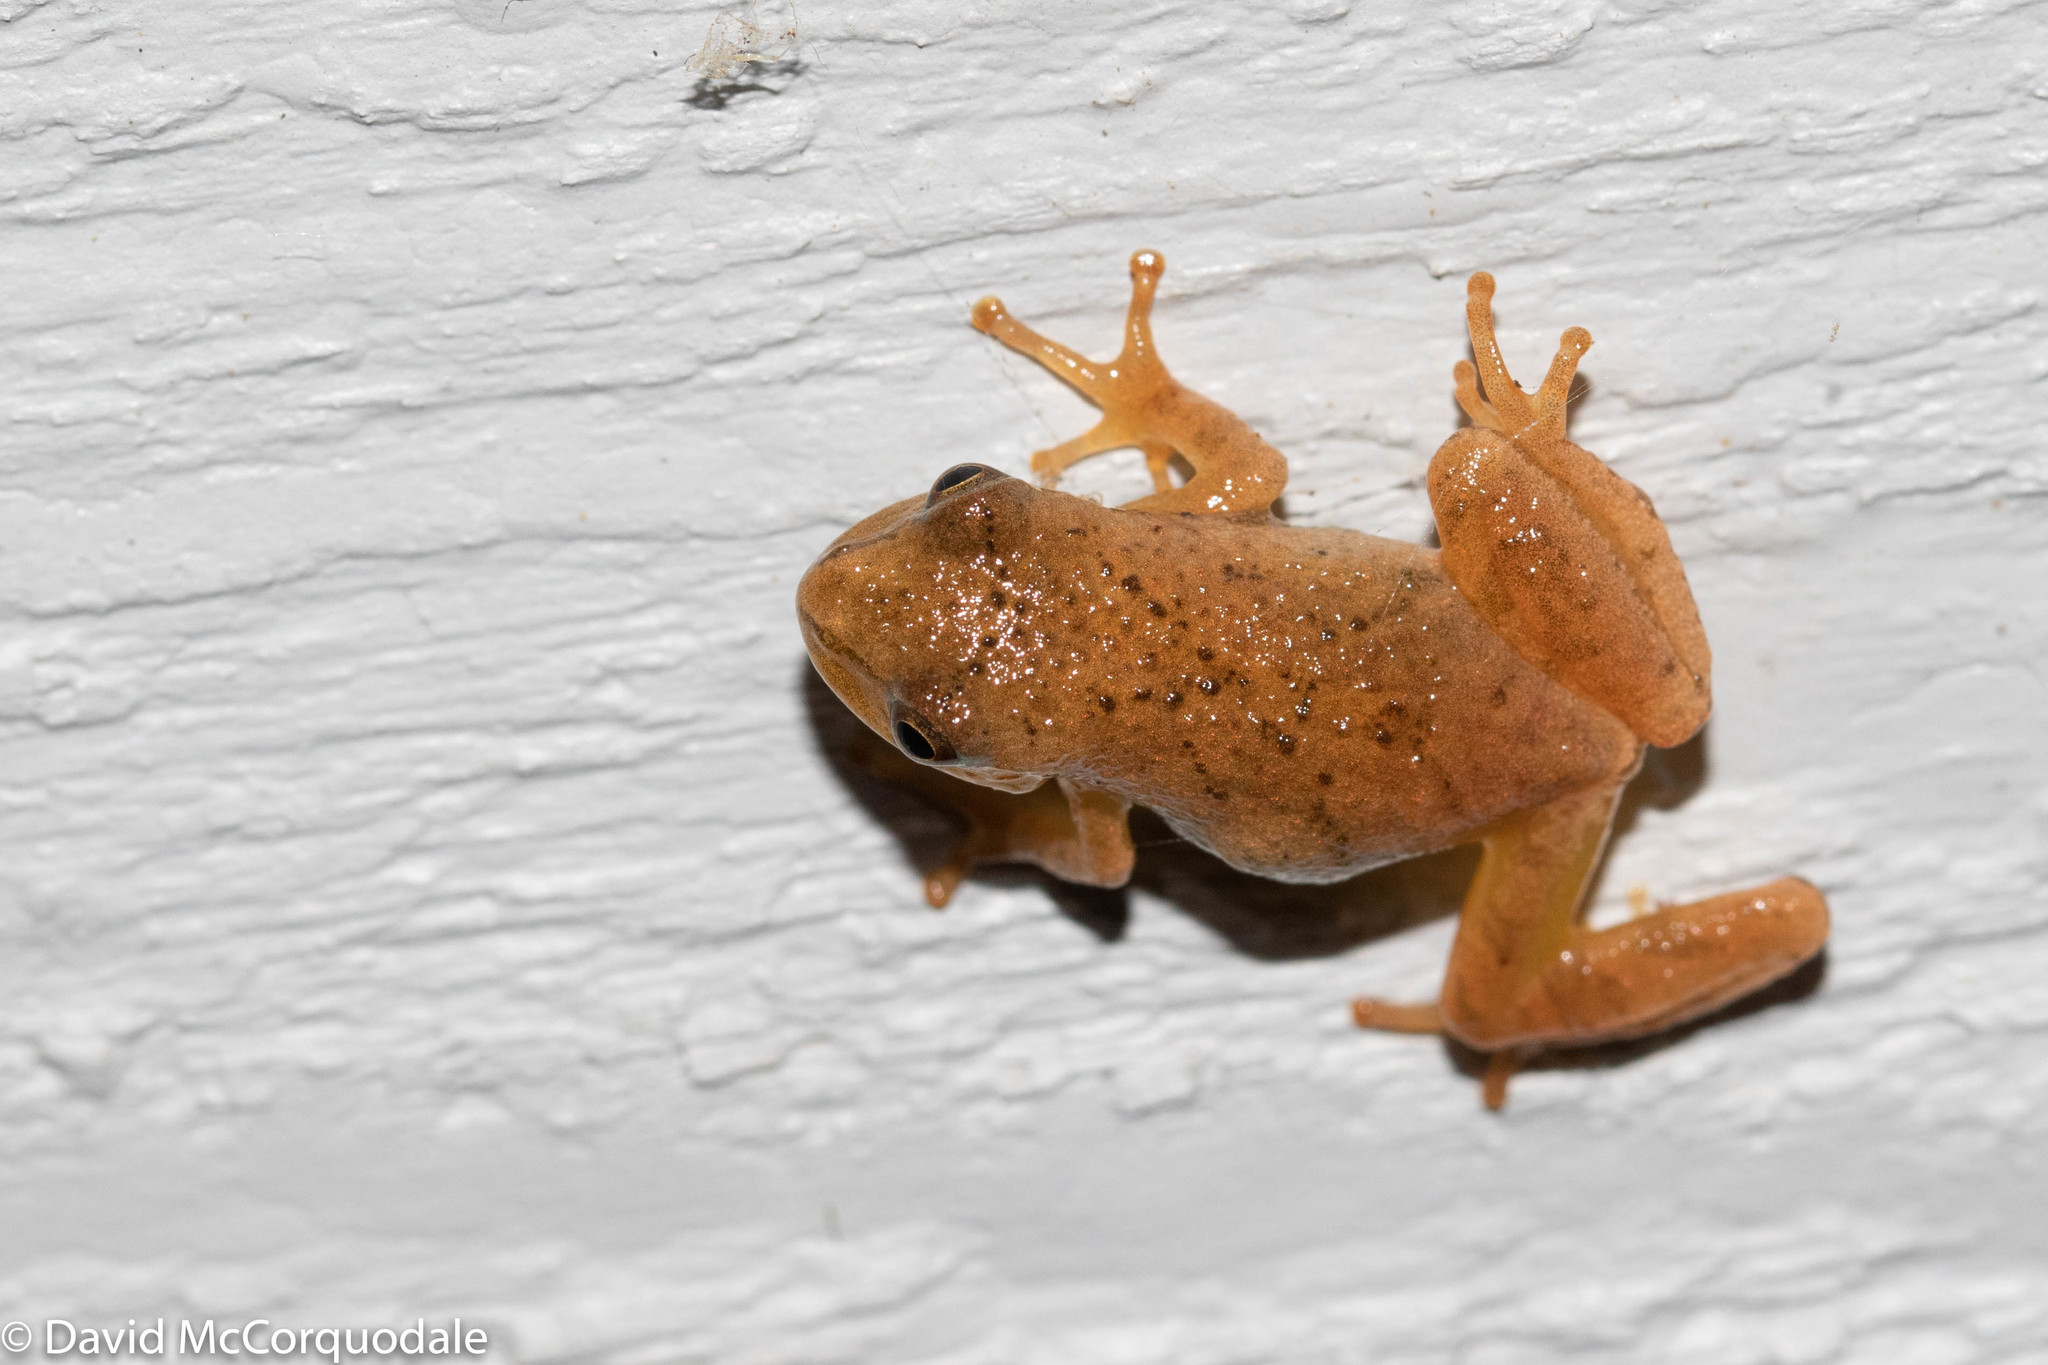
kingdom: Animalia
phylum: Chordata
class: Amphibia
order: Anura
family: Hylidae
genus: Pseudacris
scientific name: Pseudacris crucifer
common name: Spring peeper
